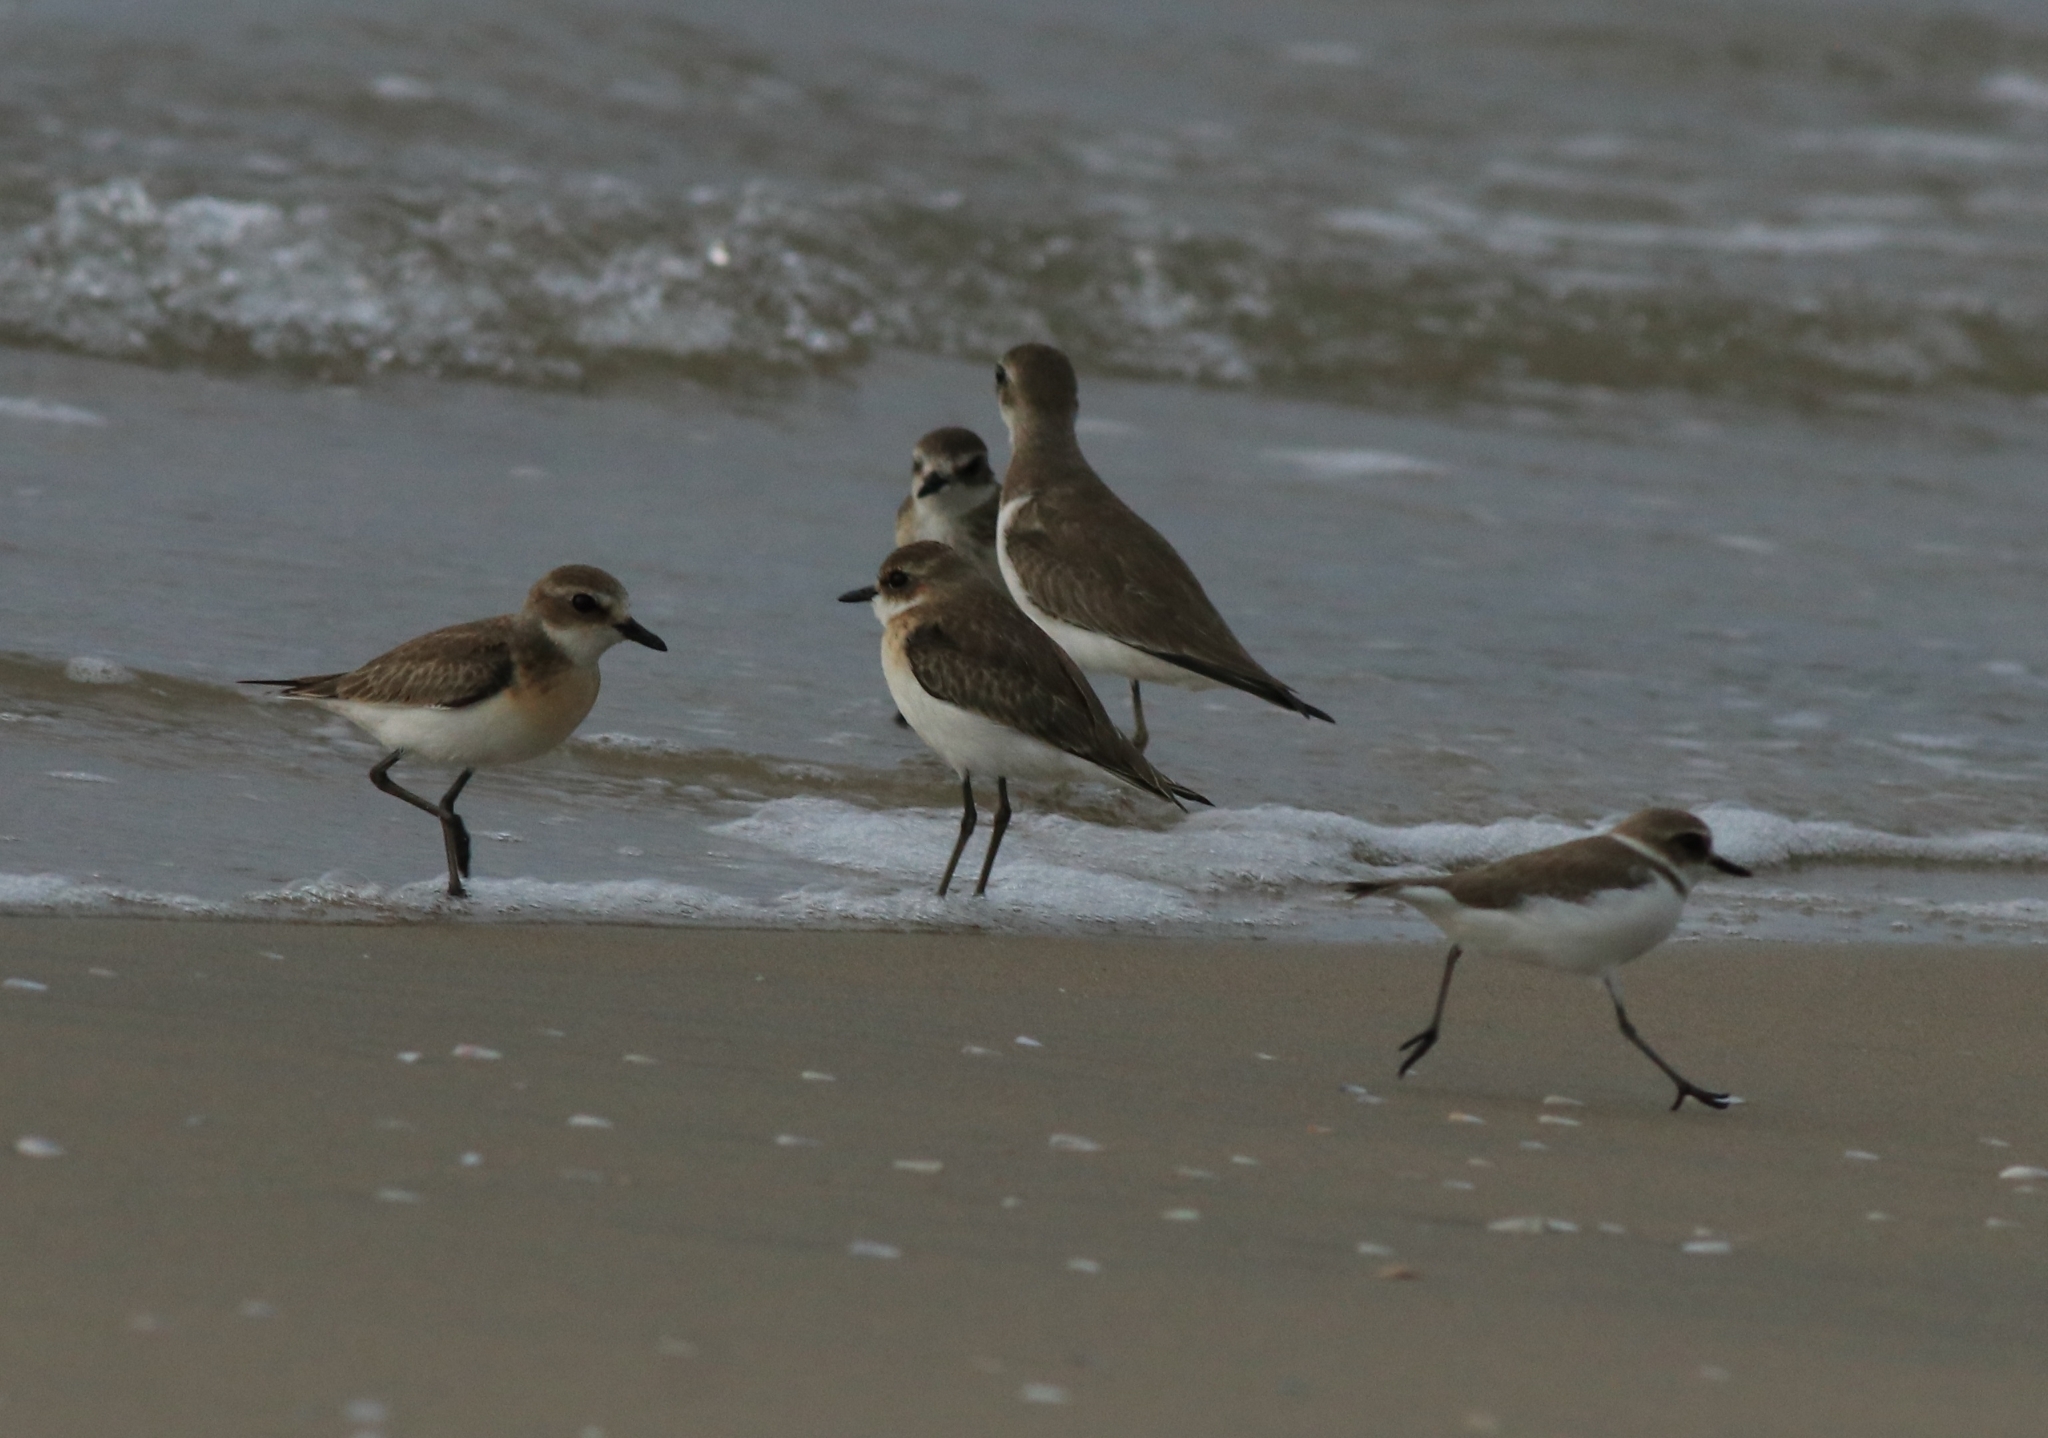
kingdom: Animalia
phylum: Chordata
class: Aves
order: Charadriiformes
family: Charadriidae
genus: Anarhynchus
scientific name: Anarhynchus
